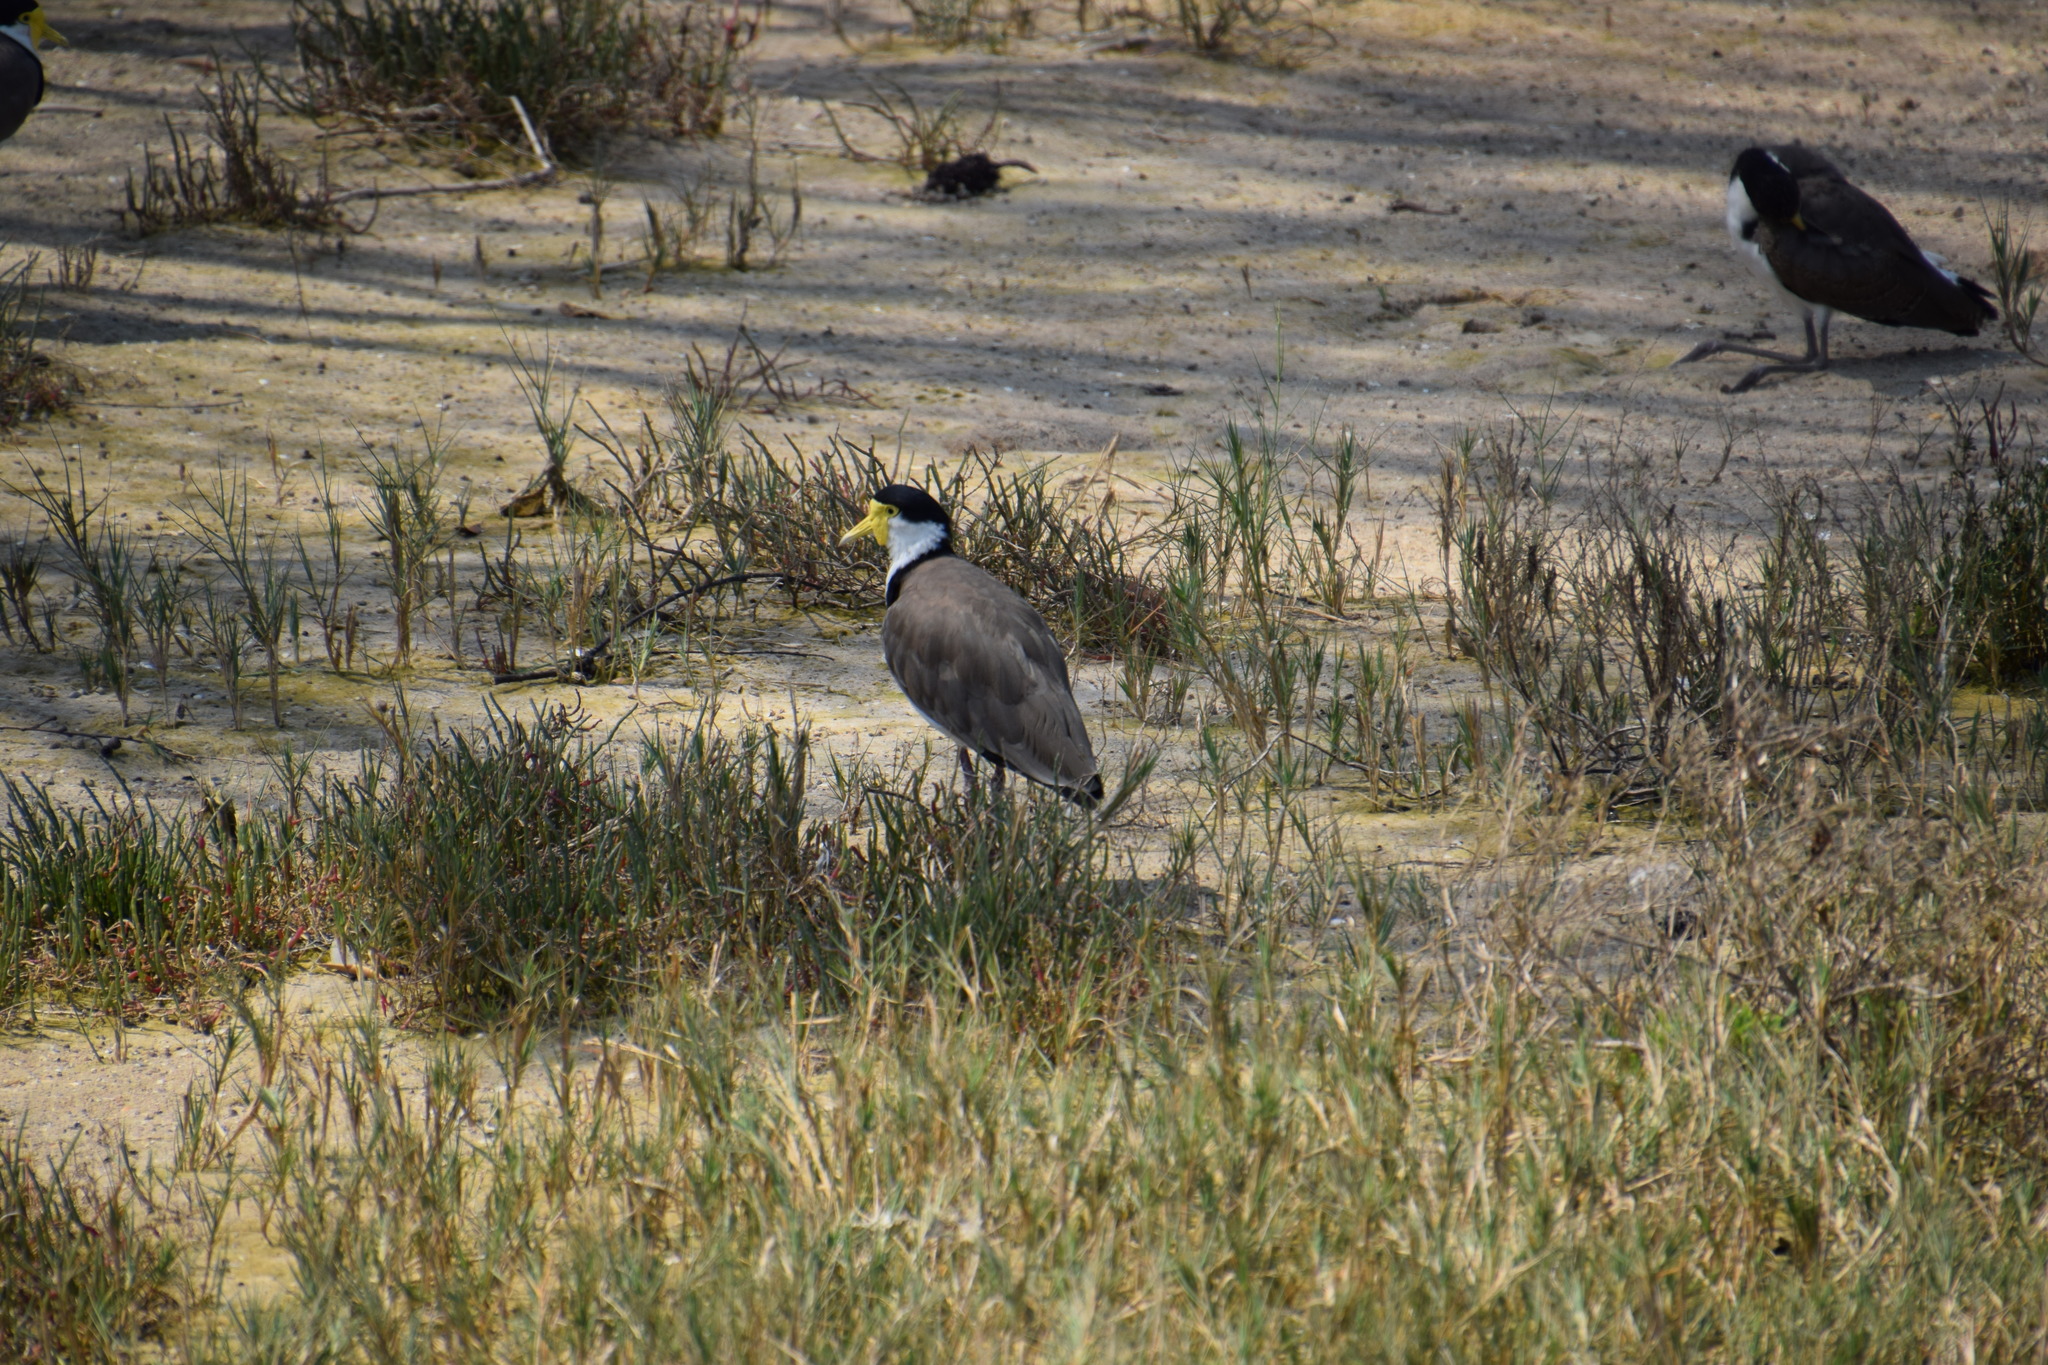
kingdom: Animalia
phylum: Chordata
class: Aves
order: Charadriiformes
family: Charadriidae
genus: Vanellus
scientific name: Vanellus miles
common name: Masked lapwing
